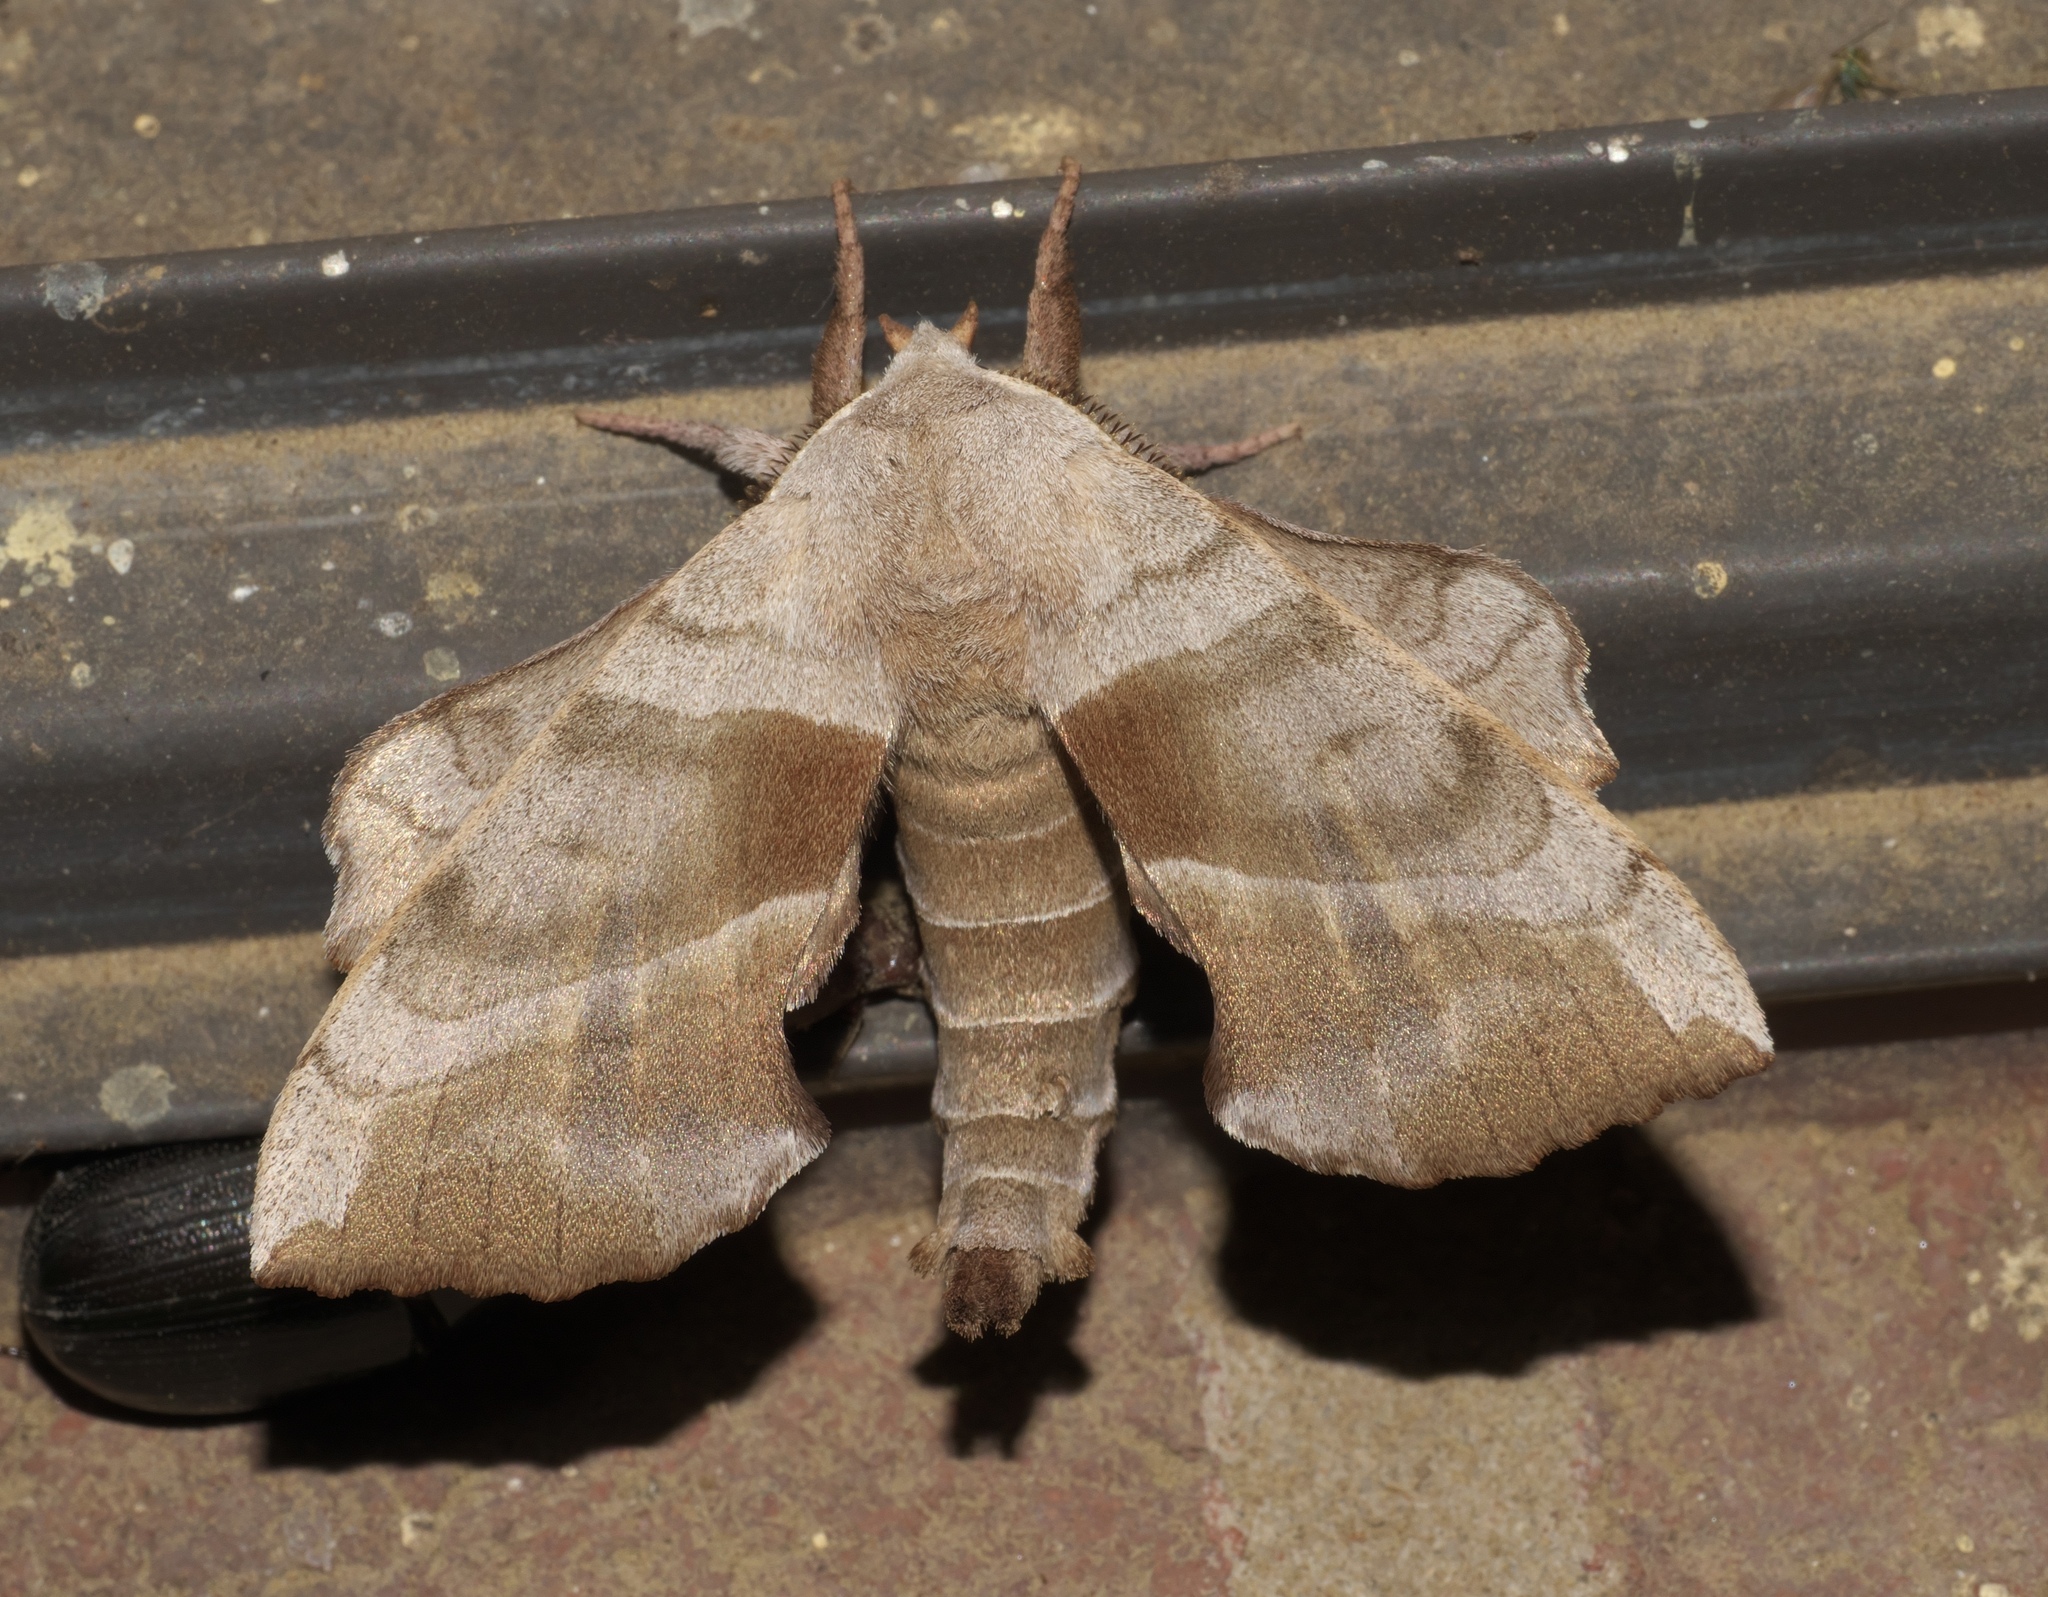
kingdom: Animalia
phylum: Arthropoda
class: Insecta
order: Lepidoptera
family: Sphingidae
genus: Amorpha
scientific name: Amorpha juglandis
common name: Walnut sphinx
